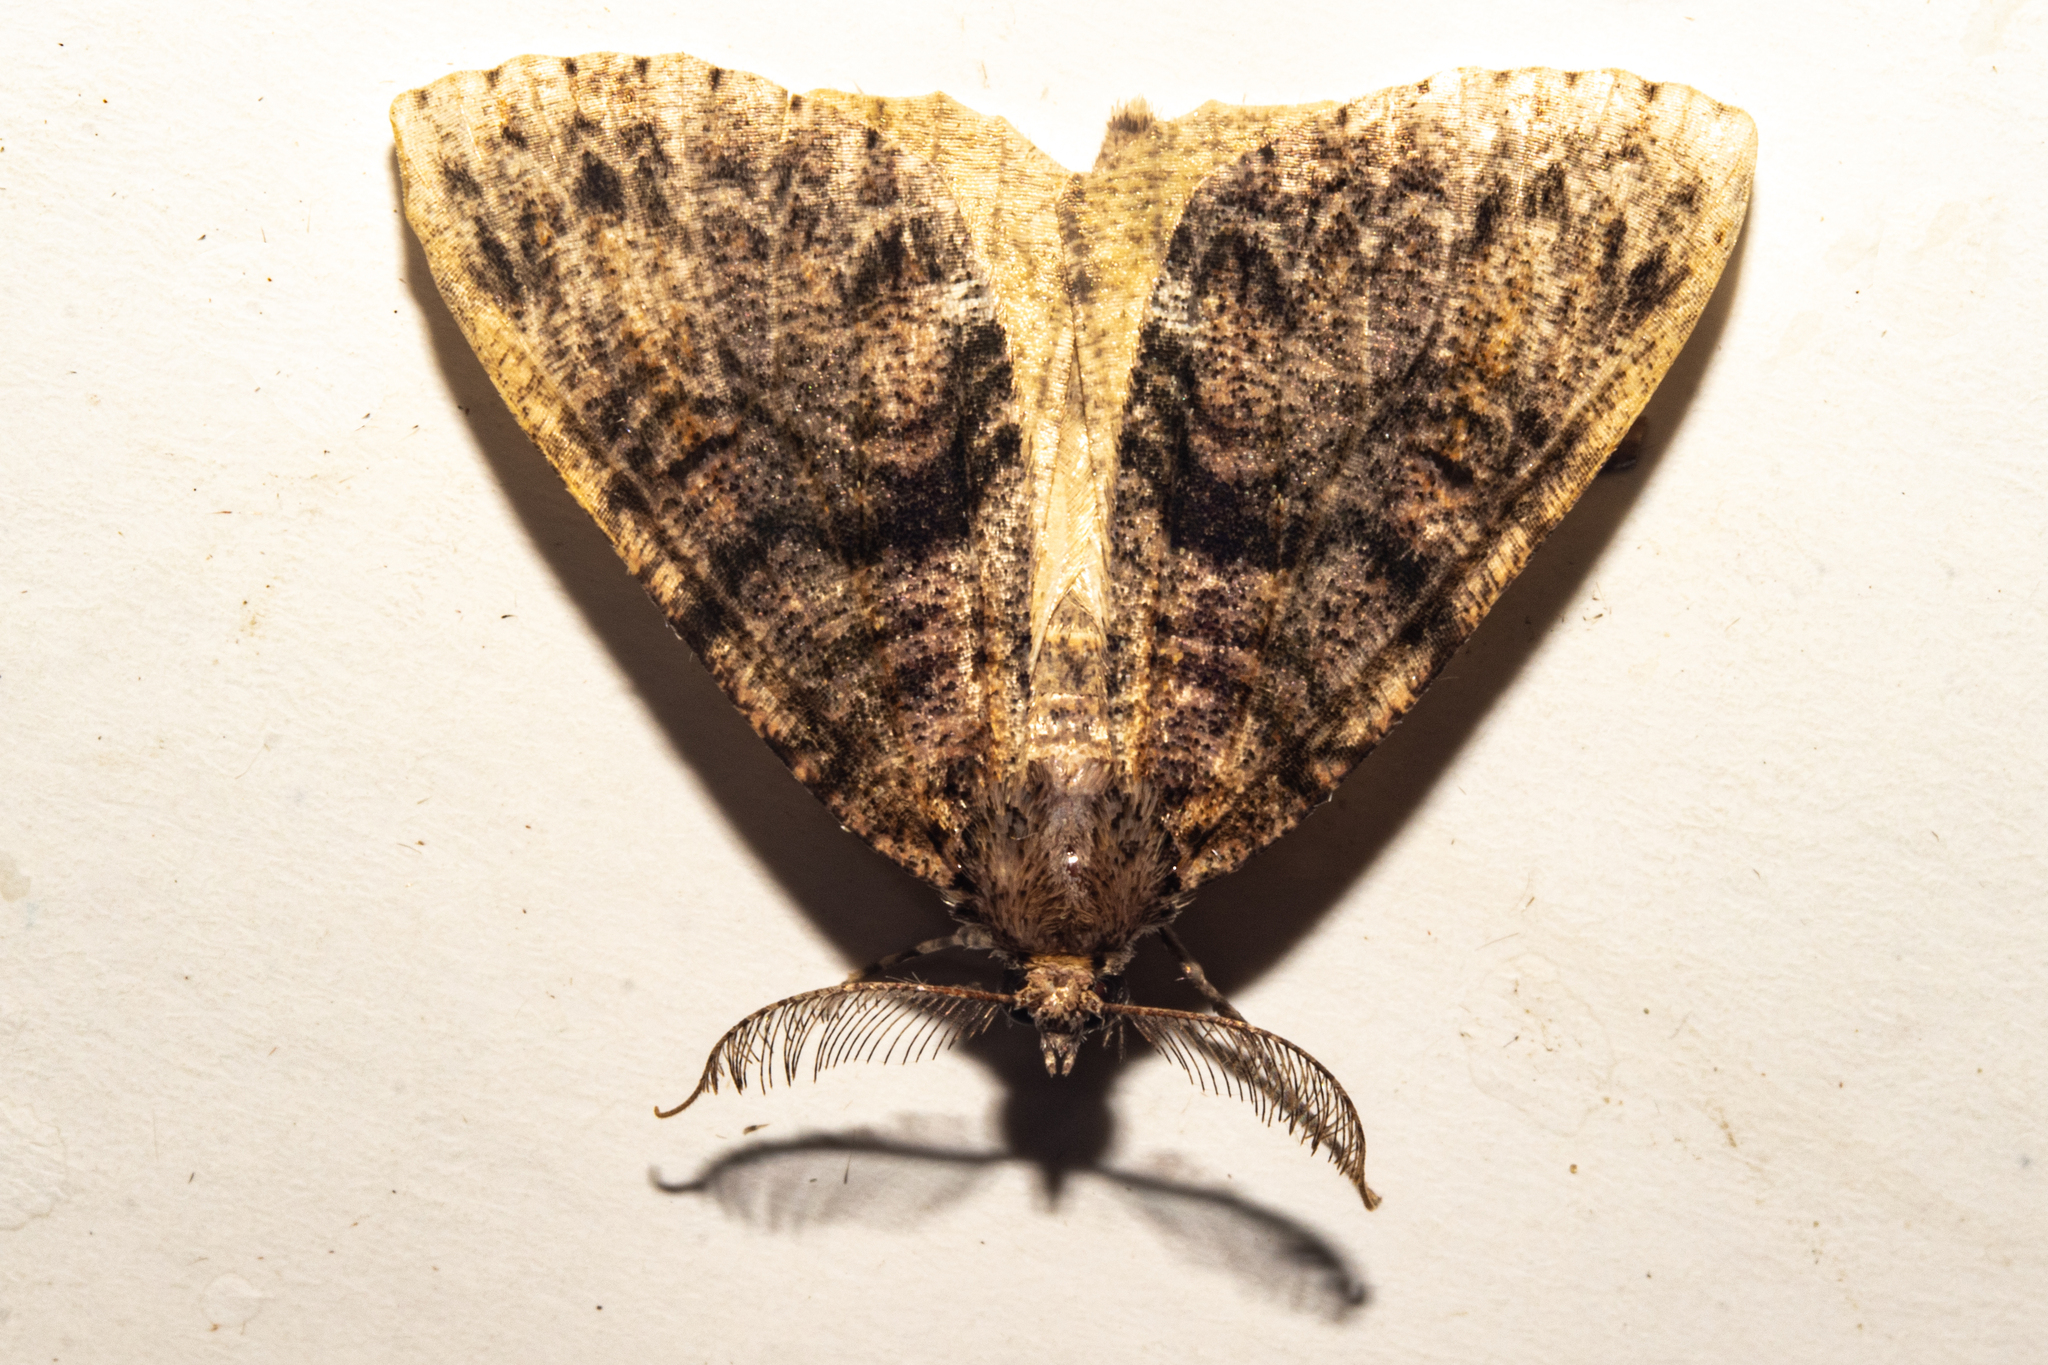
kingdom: Animalia
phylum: Arthropoda
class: Insecta
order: Lepidoptera
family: Geometridae
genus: Pseudocoremia
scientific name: Pseudocoremia suavis
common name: Common forest looper
